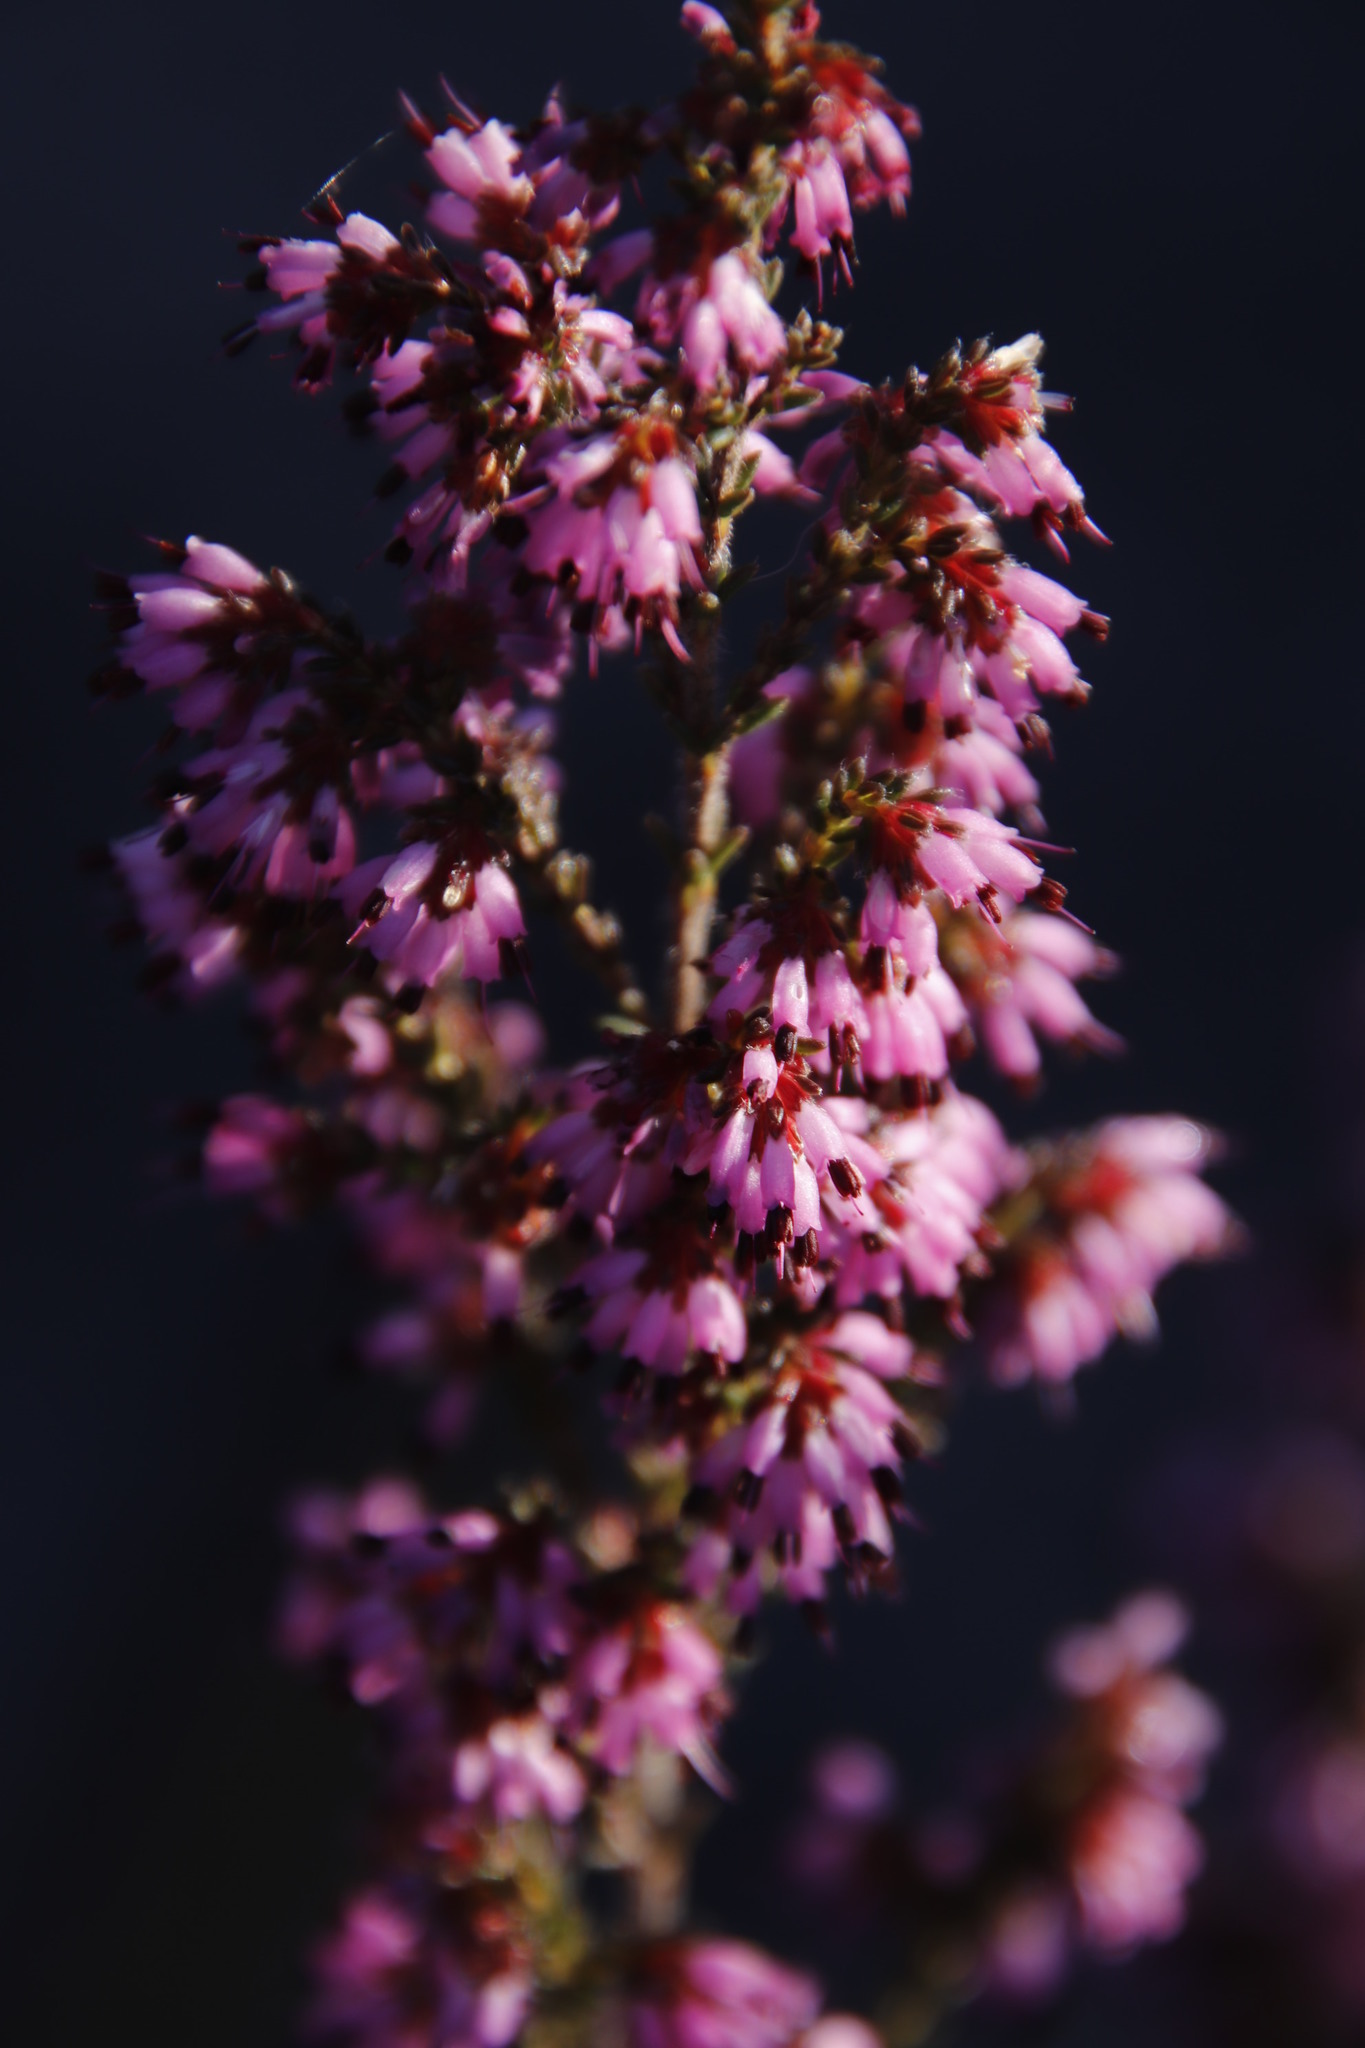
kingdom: Plantae
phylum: Tracheophyta
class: Magnoliopsida
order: Ericales
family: Ericaceae
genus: Erica
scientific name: Erica glabella
